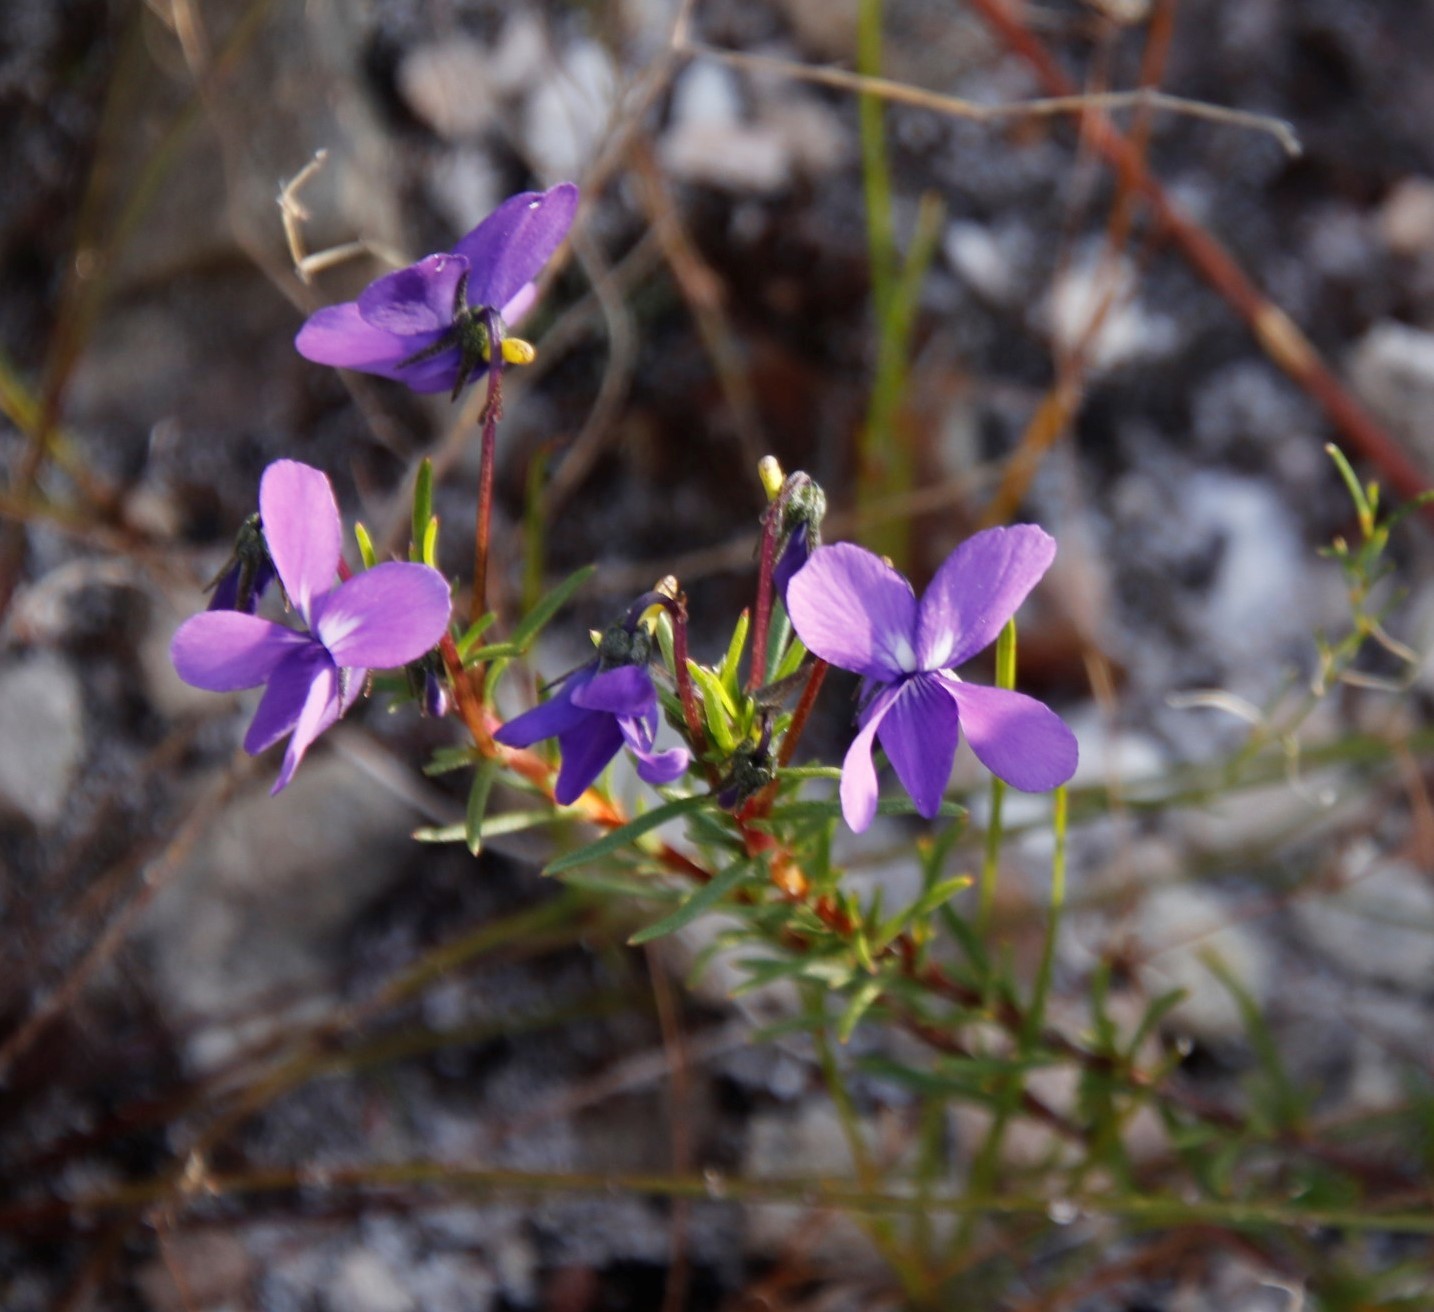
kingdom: Plantae
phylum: Tracheophyta
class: Magnoliopsida
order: Malpighiales
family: Violaceae
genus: Viola
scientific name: Viola decumbens
